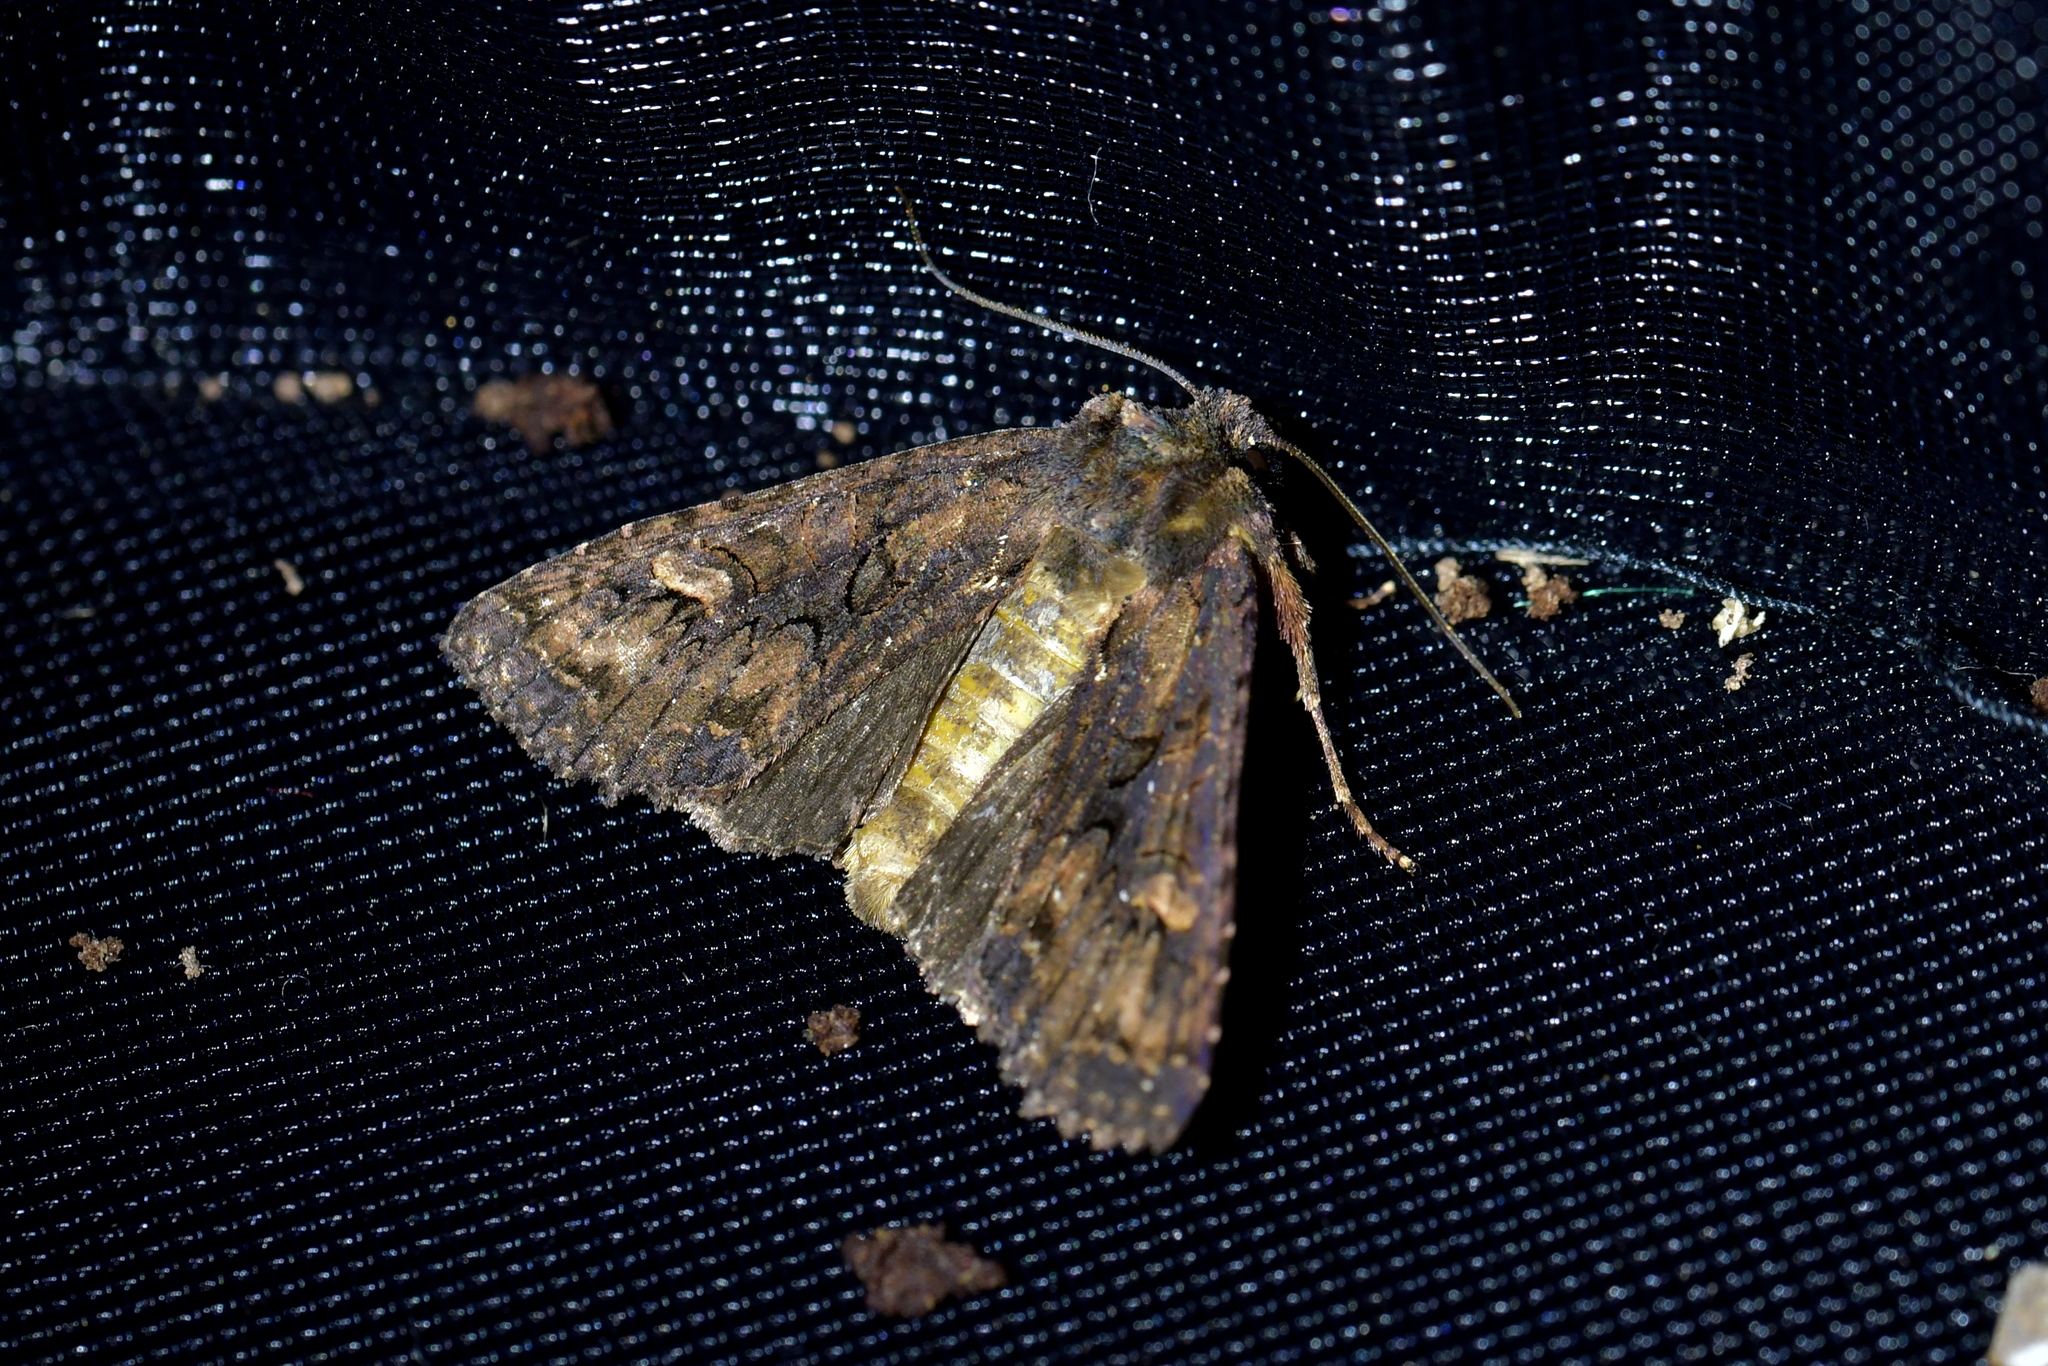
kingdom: Animalia
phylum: Arthropoda
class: Insecta
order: Lepidoptera
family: Noctuidae
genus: Meterana
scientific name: Meterana dotata
